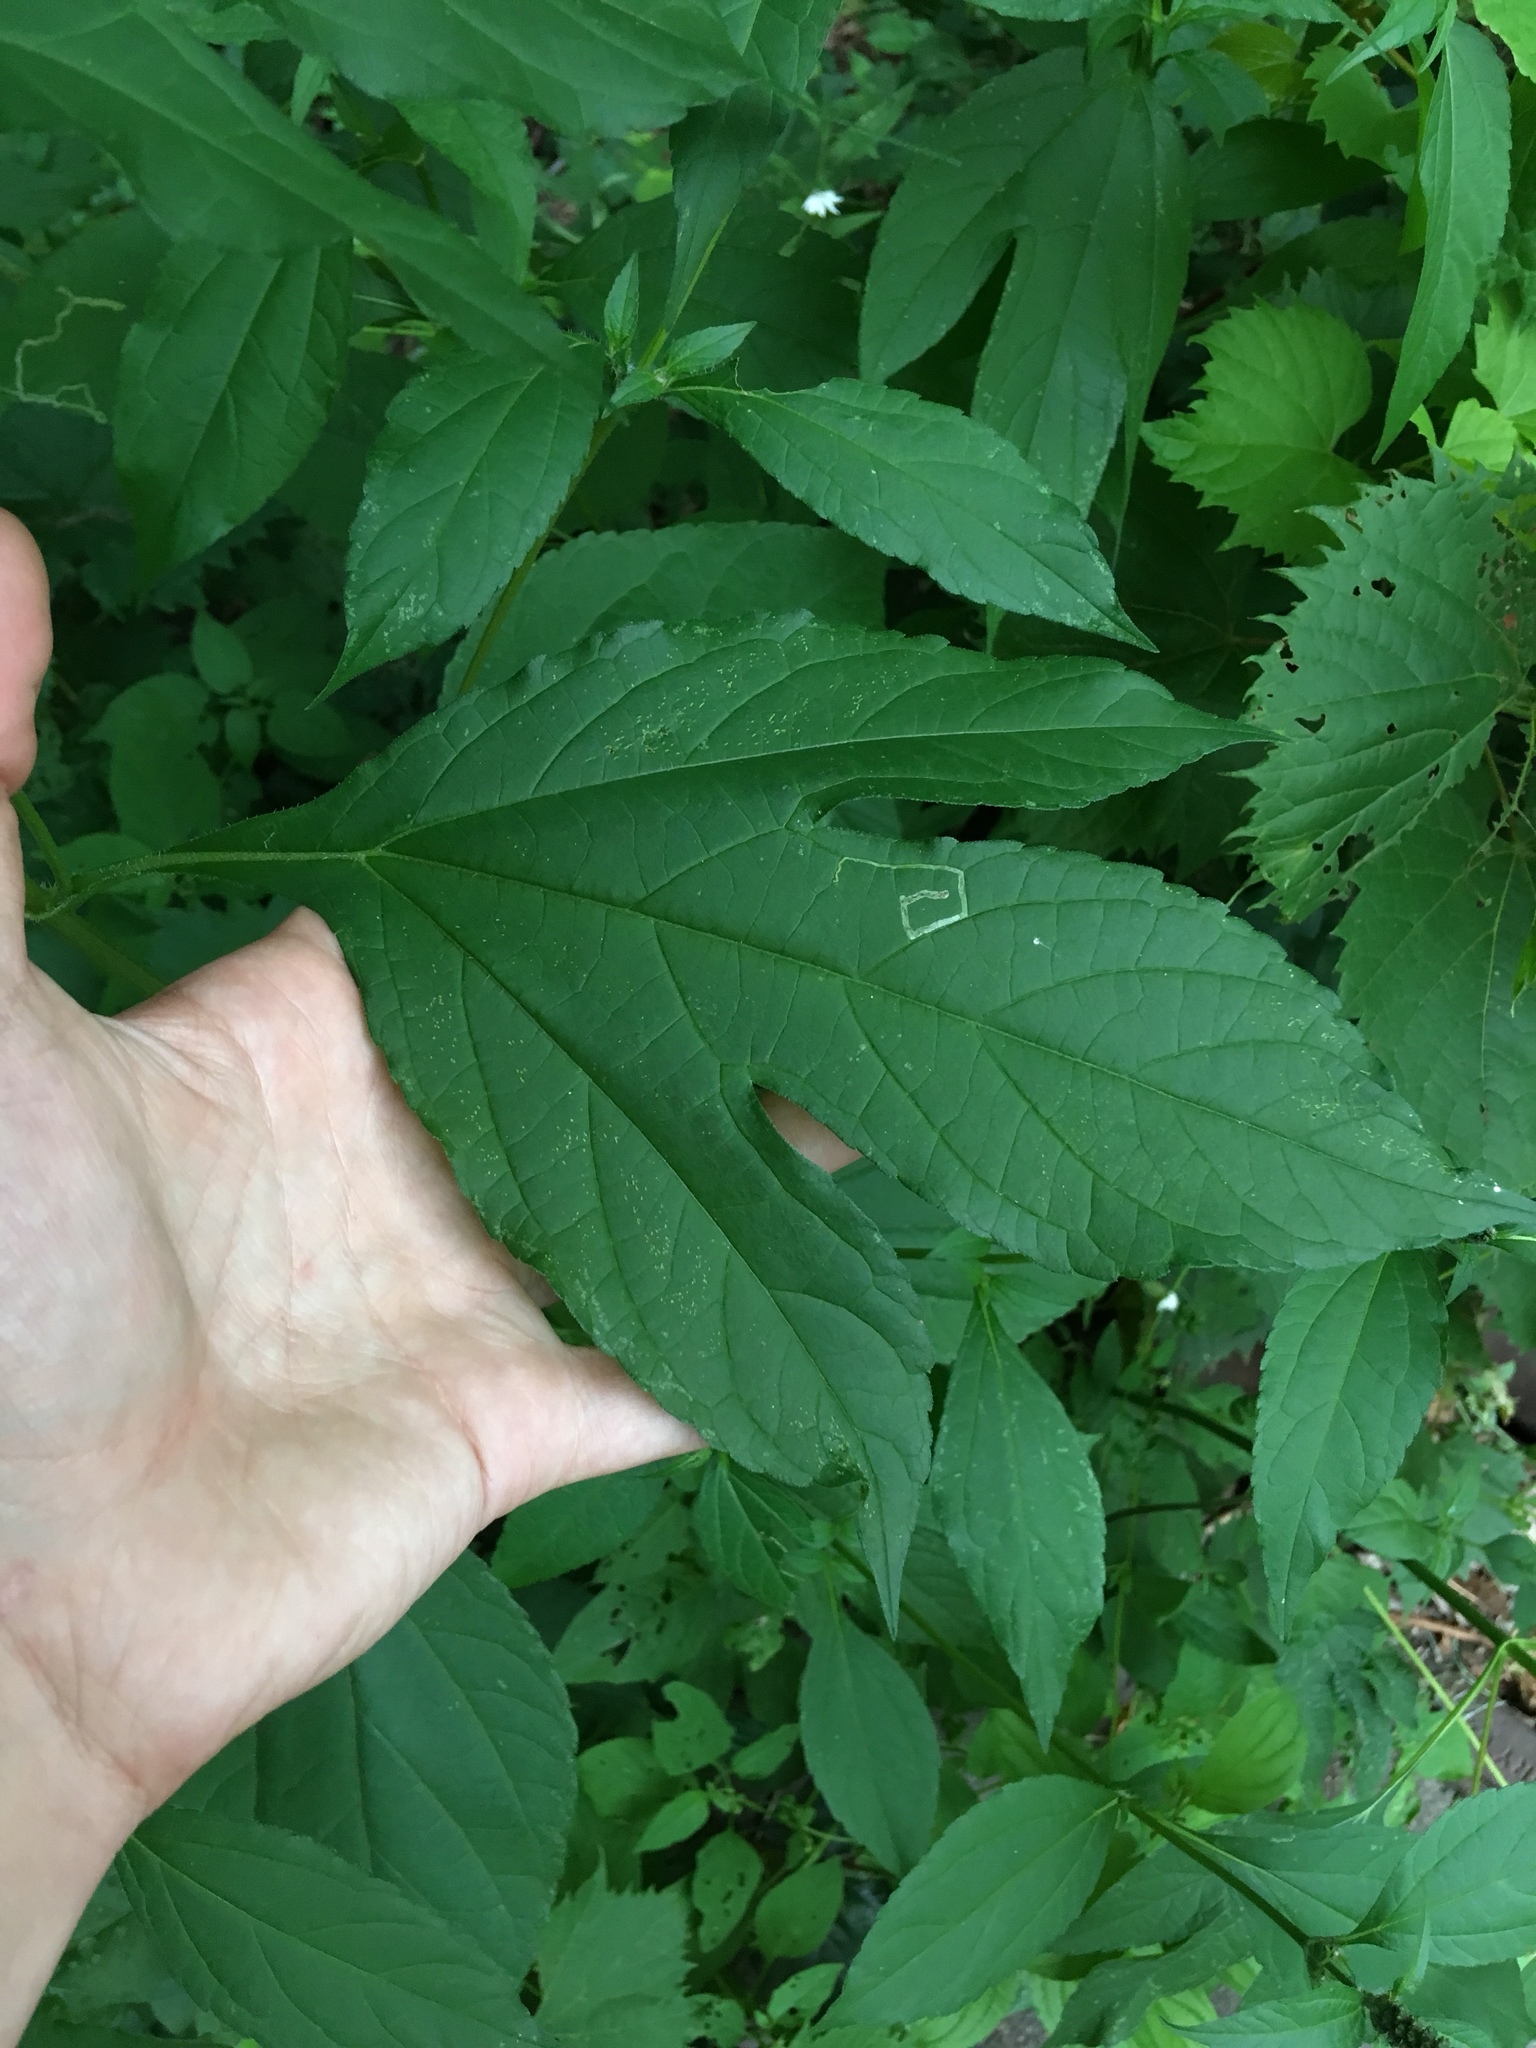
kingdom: Plantae
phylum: Tracheophyta
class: Magnoliopsida
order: Asterales
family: Asteraceae
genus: Ambrosia
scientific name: Ambrosia trifida
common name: Giant ragweed
